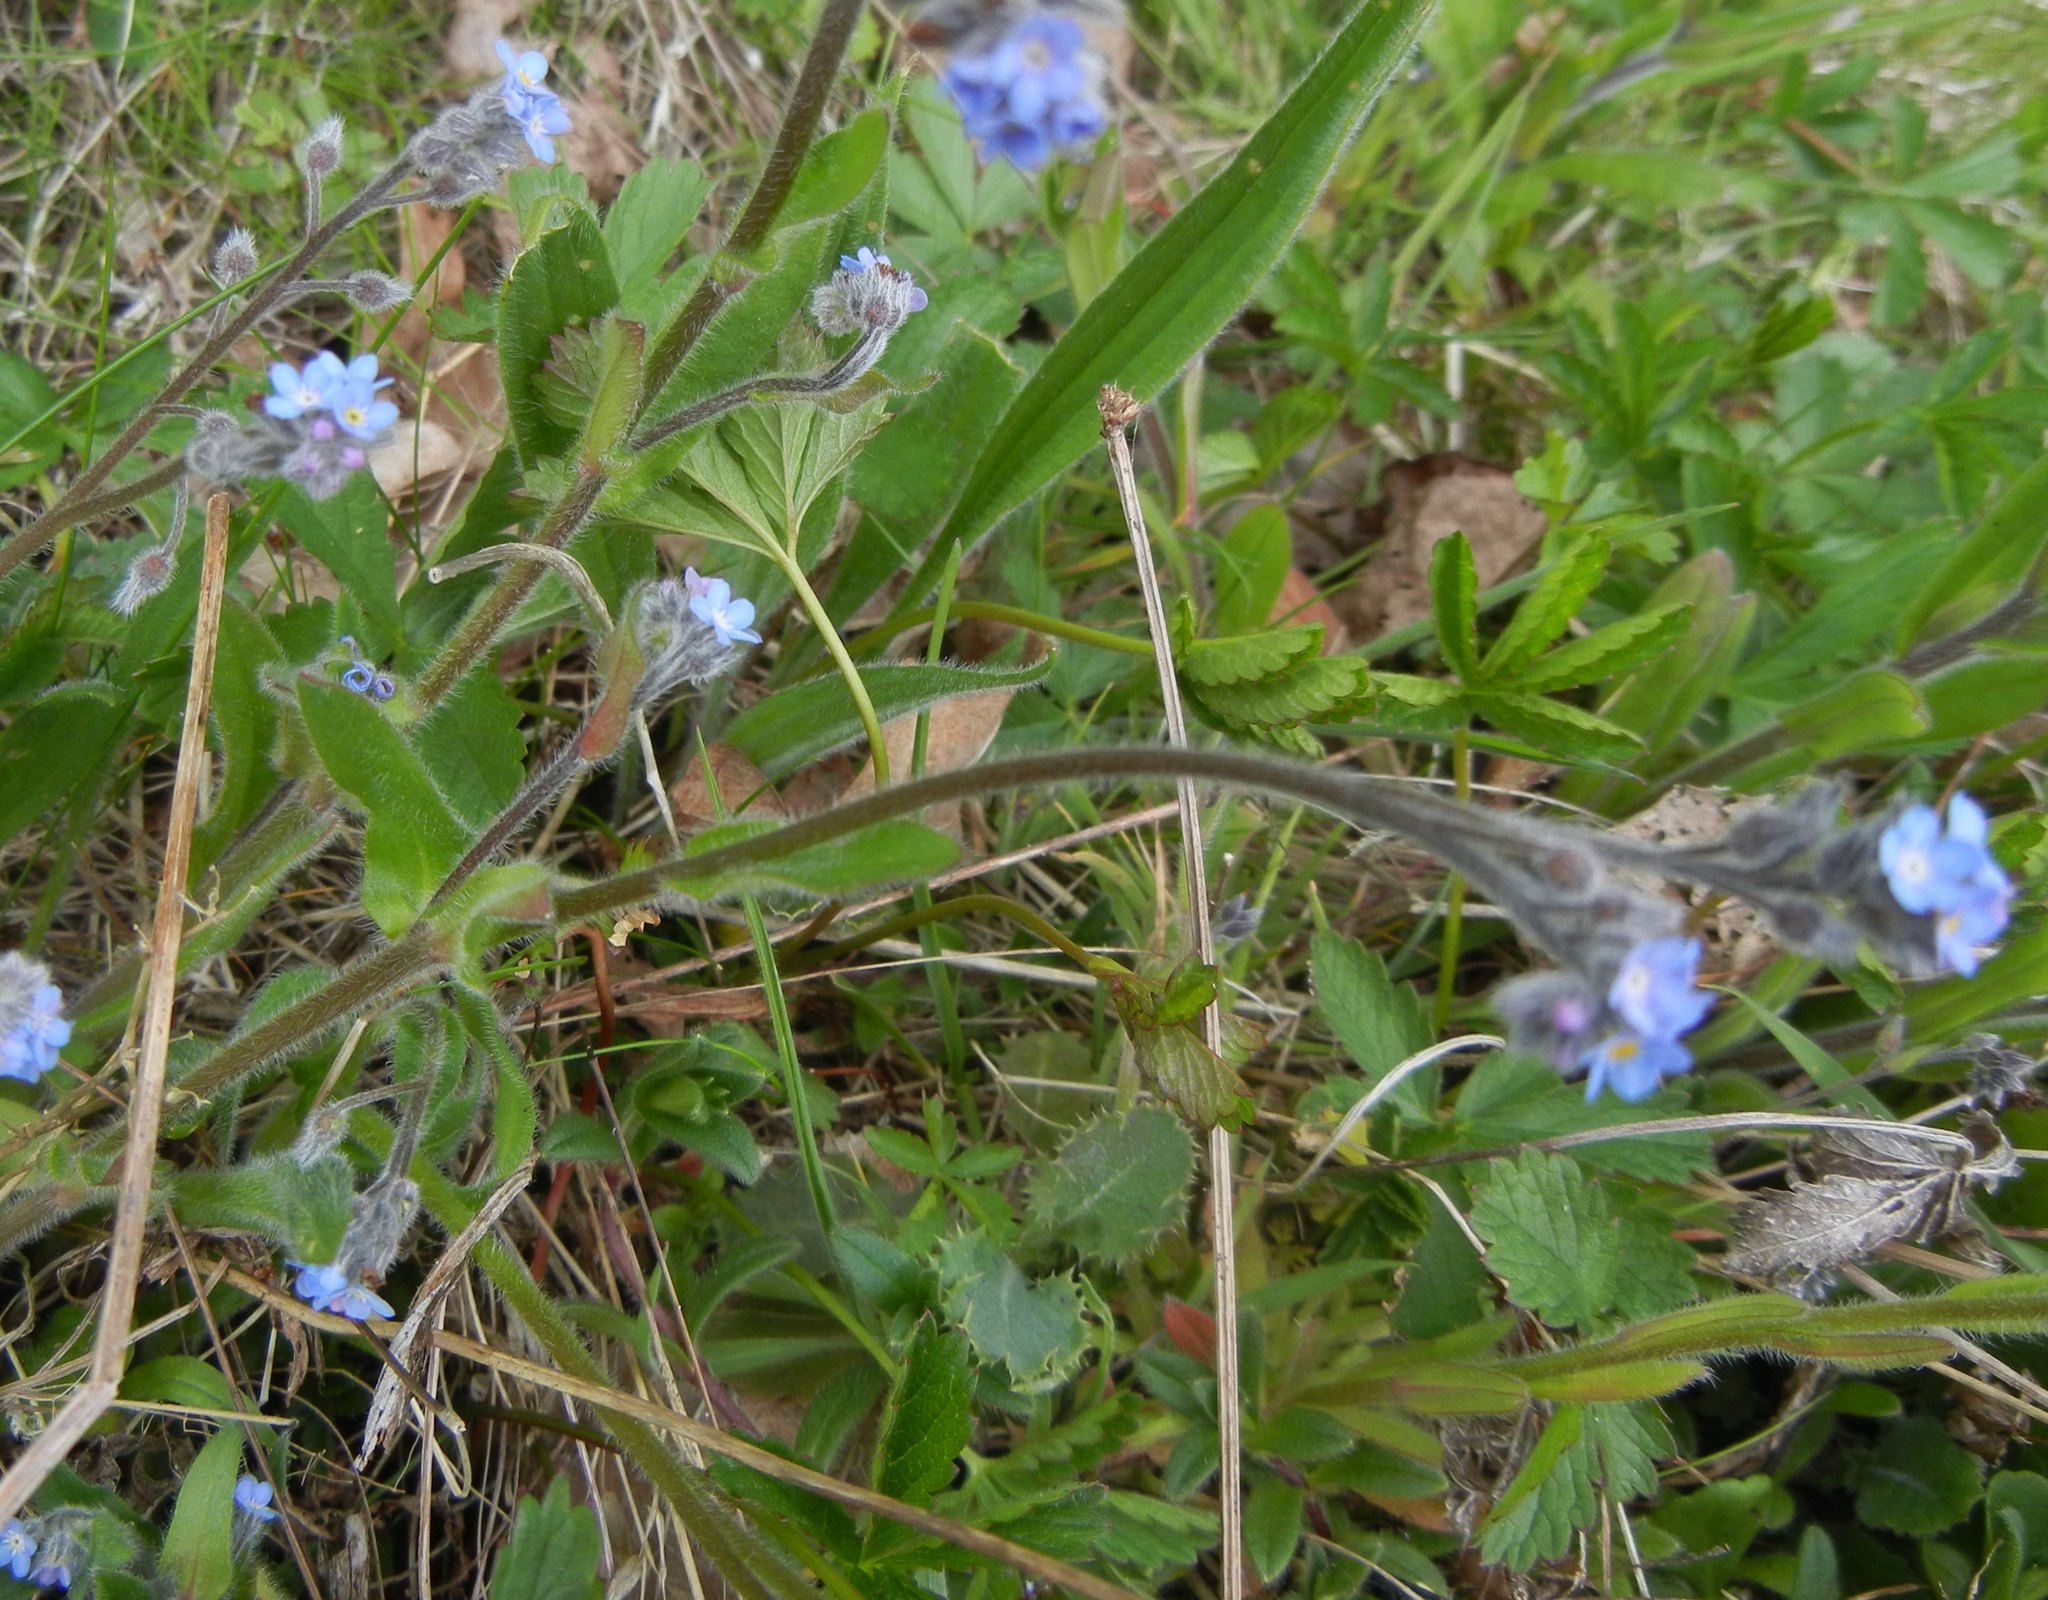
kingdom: Plantae
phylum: Tracheophyta
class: Magnoliopsida
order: Boraginales
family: Boraginaceae
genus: Myosotis
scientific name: Myosotis arvensis
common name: Field forget-me-not
